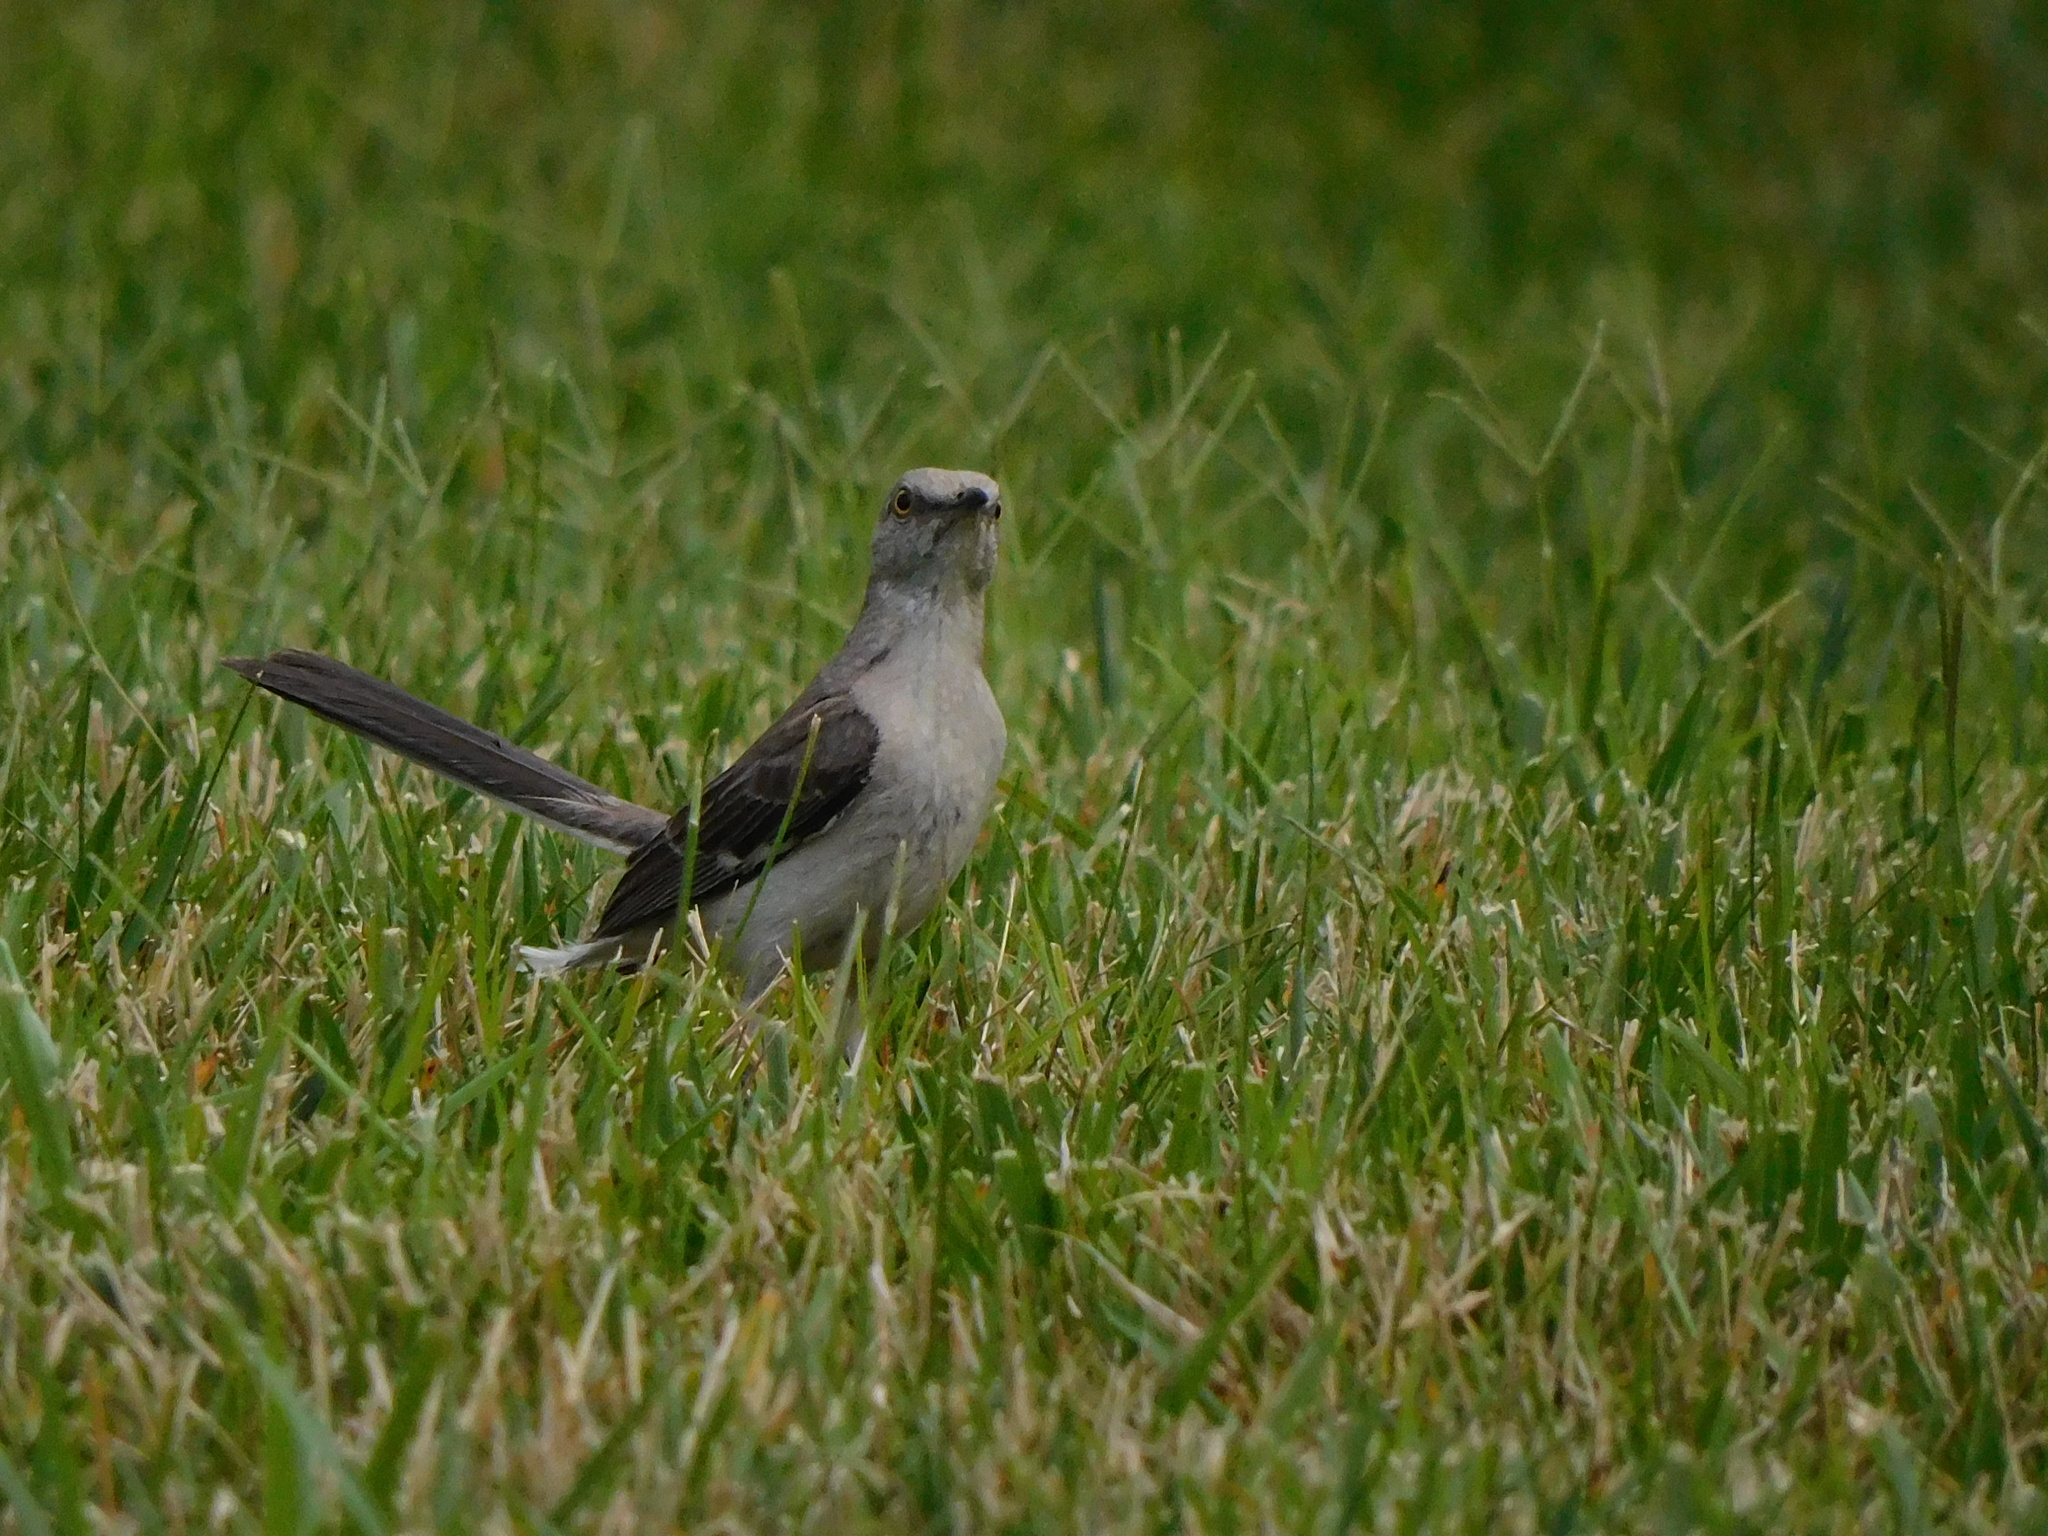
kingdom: Animalia
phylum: Chordata
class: Aves
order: Passeriformes
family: Mimidae
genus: Mimus
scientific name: Mimus polyglottos
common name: Northern mockingbird
